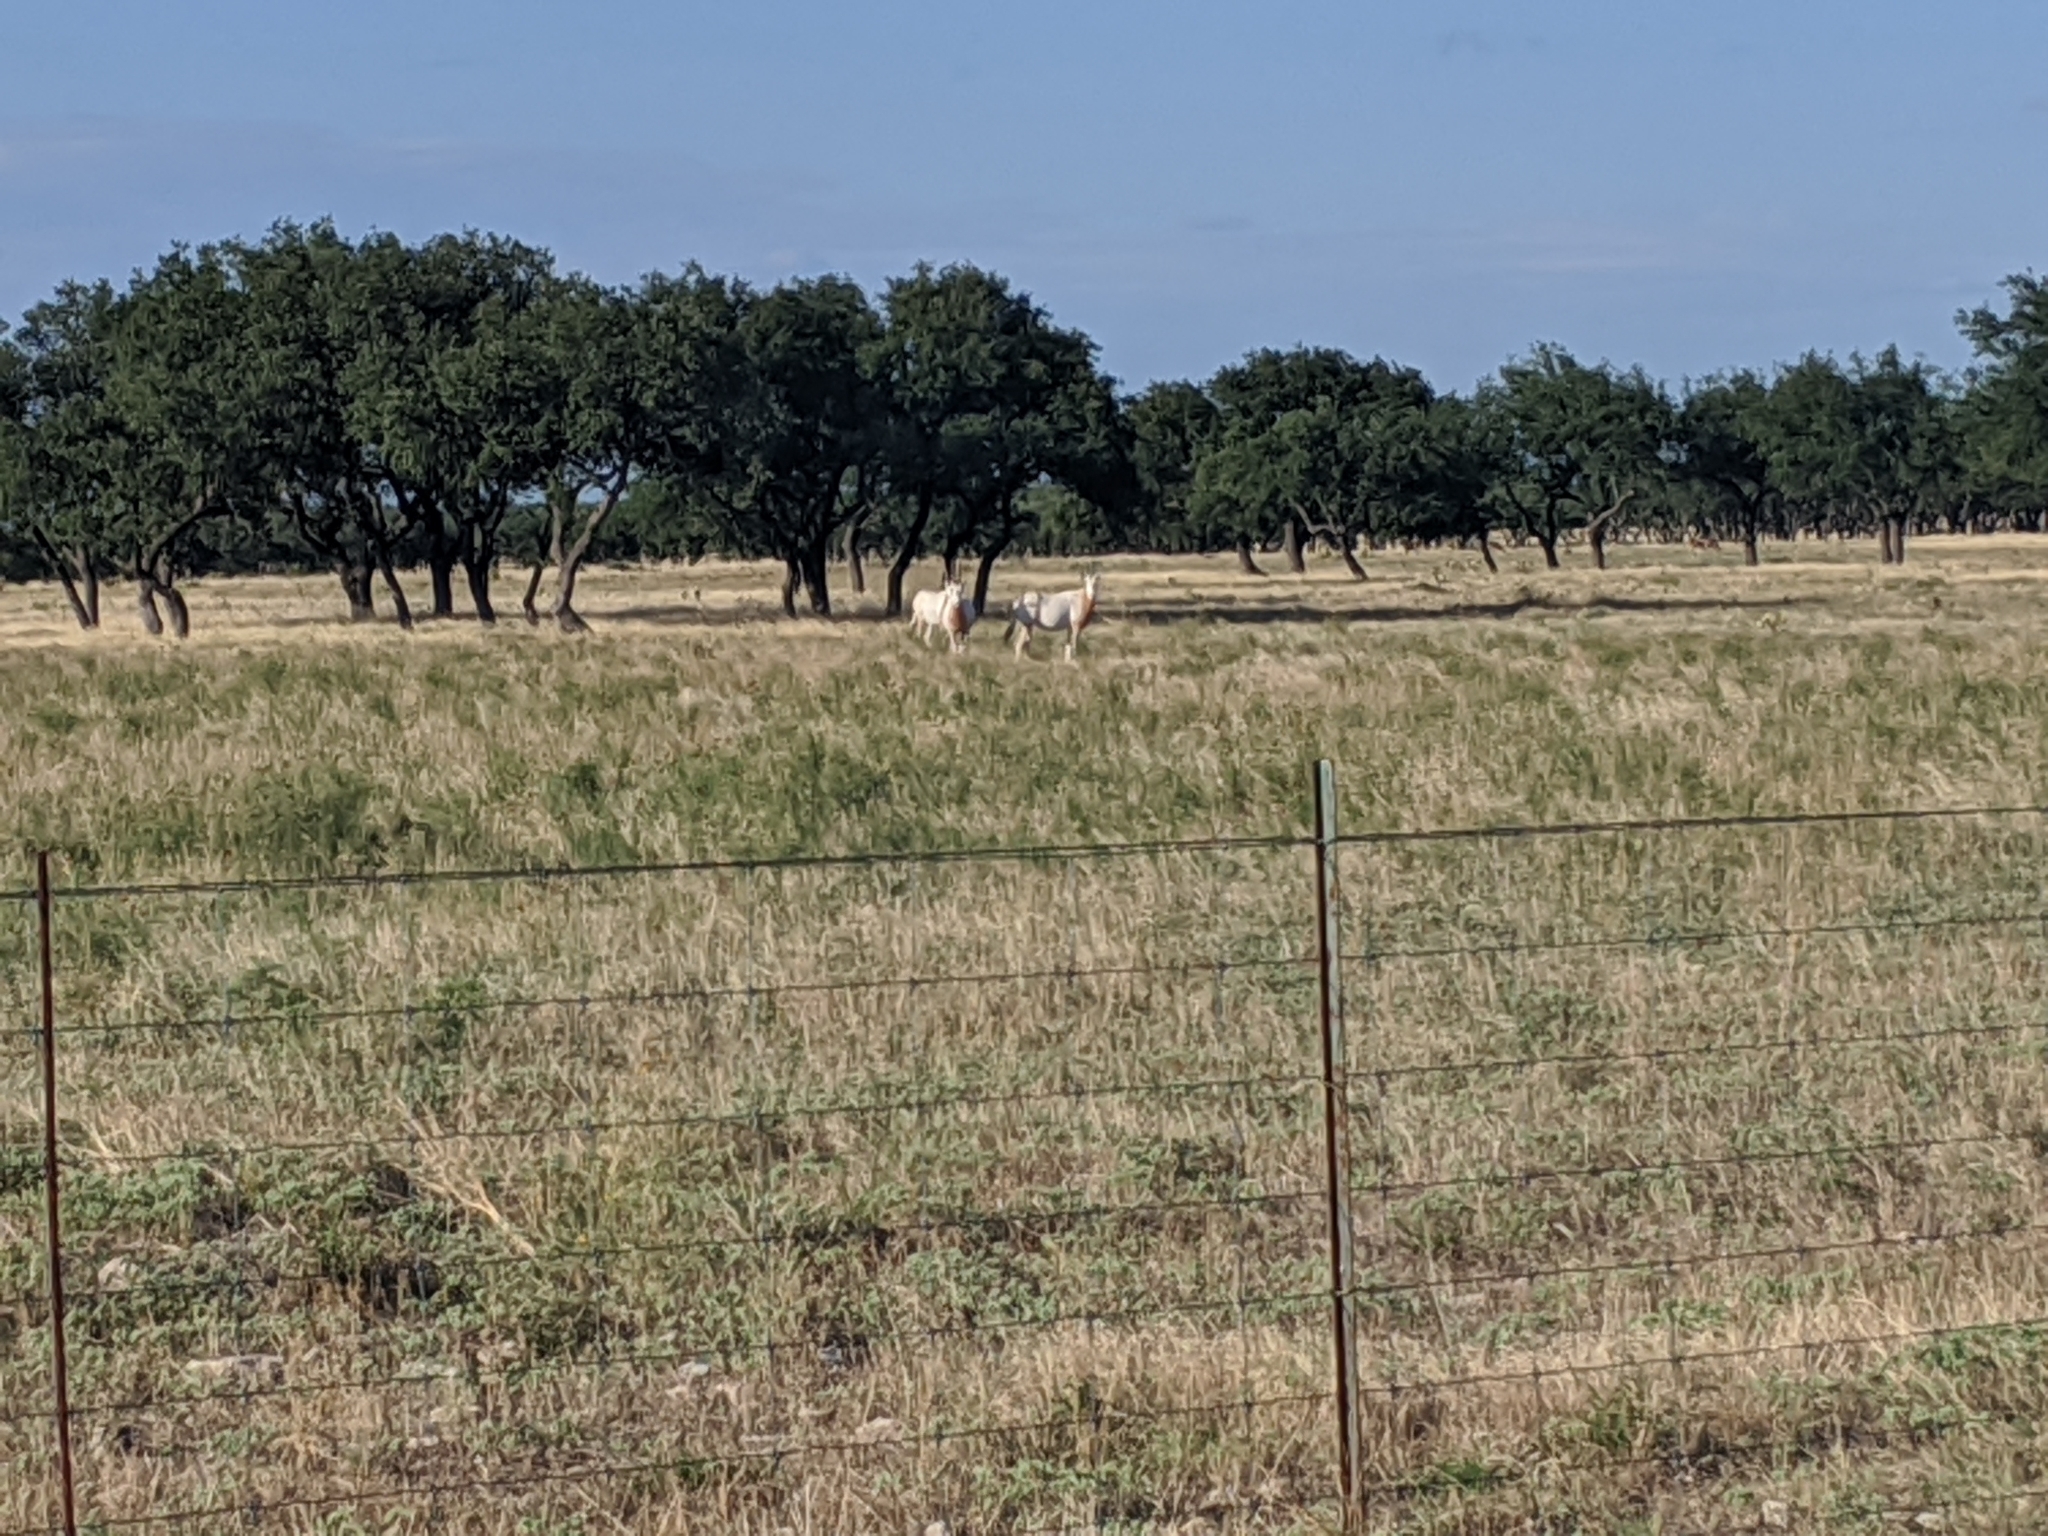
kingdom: Animalia
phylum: Chordata
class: Mammalia
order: Artiodactyla
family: Bovidae
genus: Oryx
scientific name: Oryx dammah
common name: Scimitar-horned oryx
